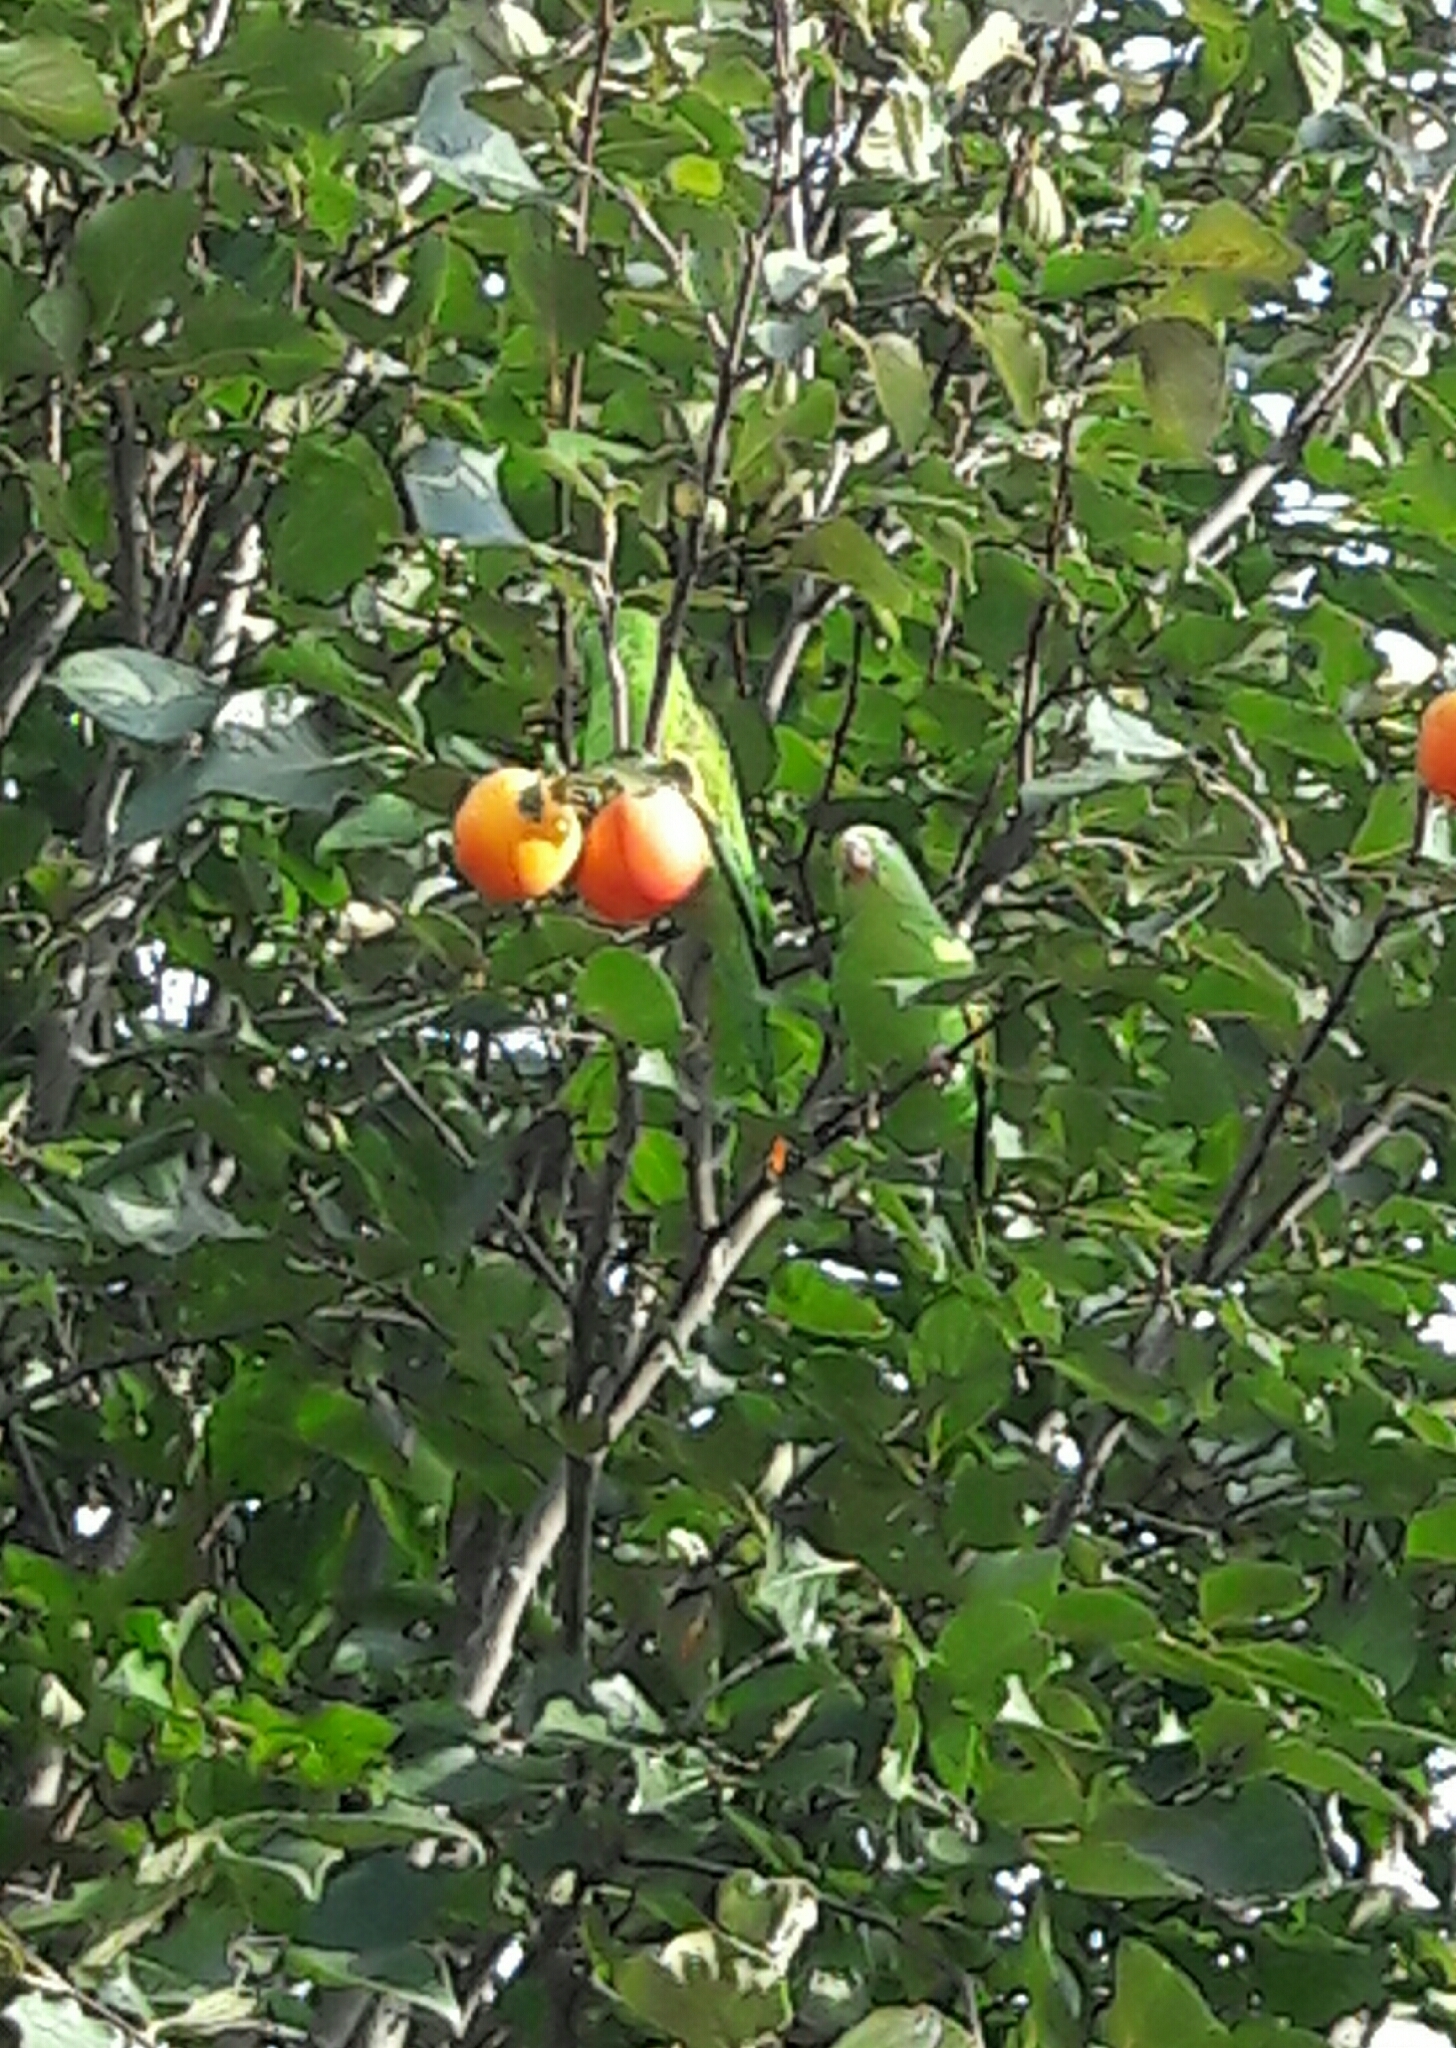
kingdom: Animalia
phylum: Chordata
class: Aves
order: Psittaciformes
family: Psittacidae
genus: Brotogeris
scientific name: Brotogeris chiriri
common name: Yellow-chevroned parakeet
